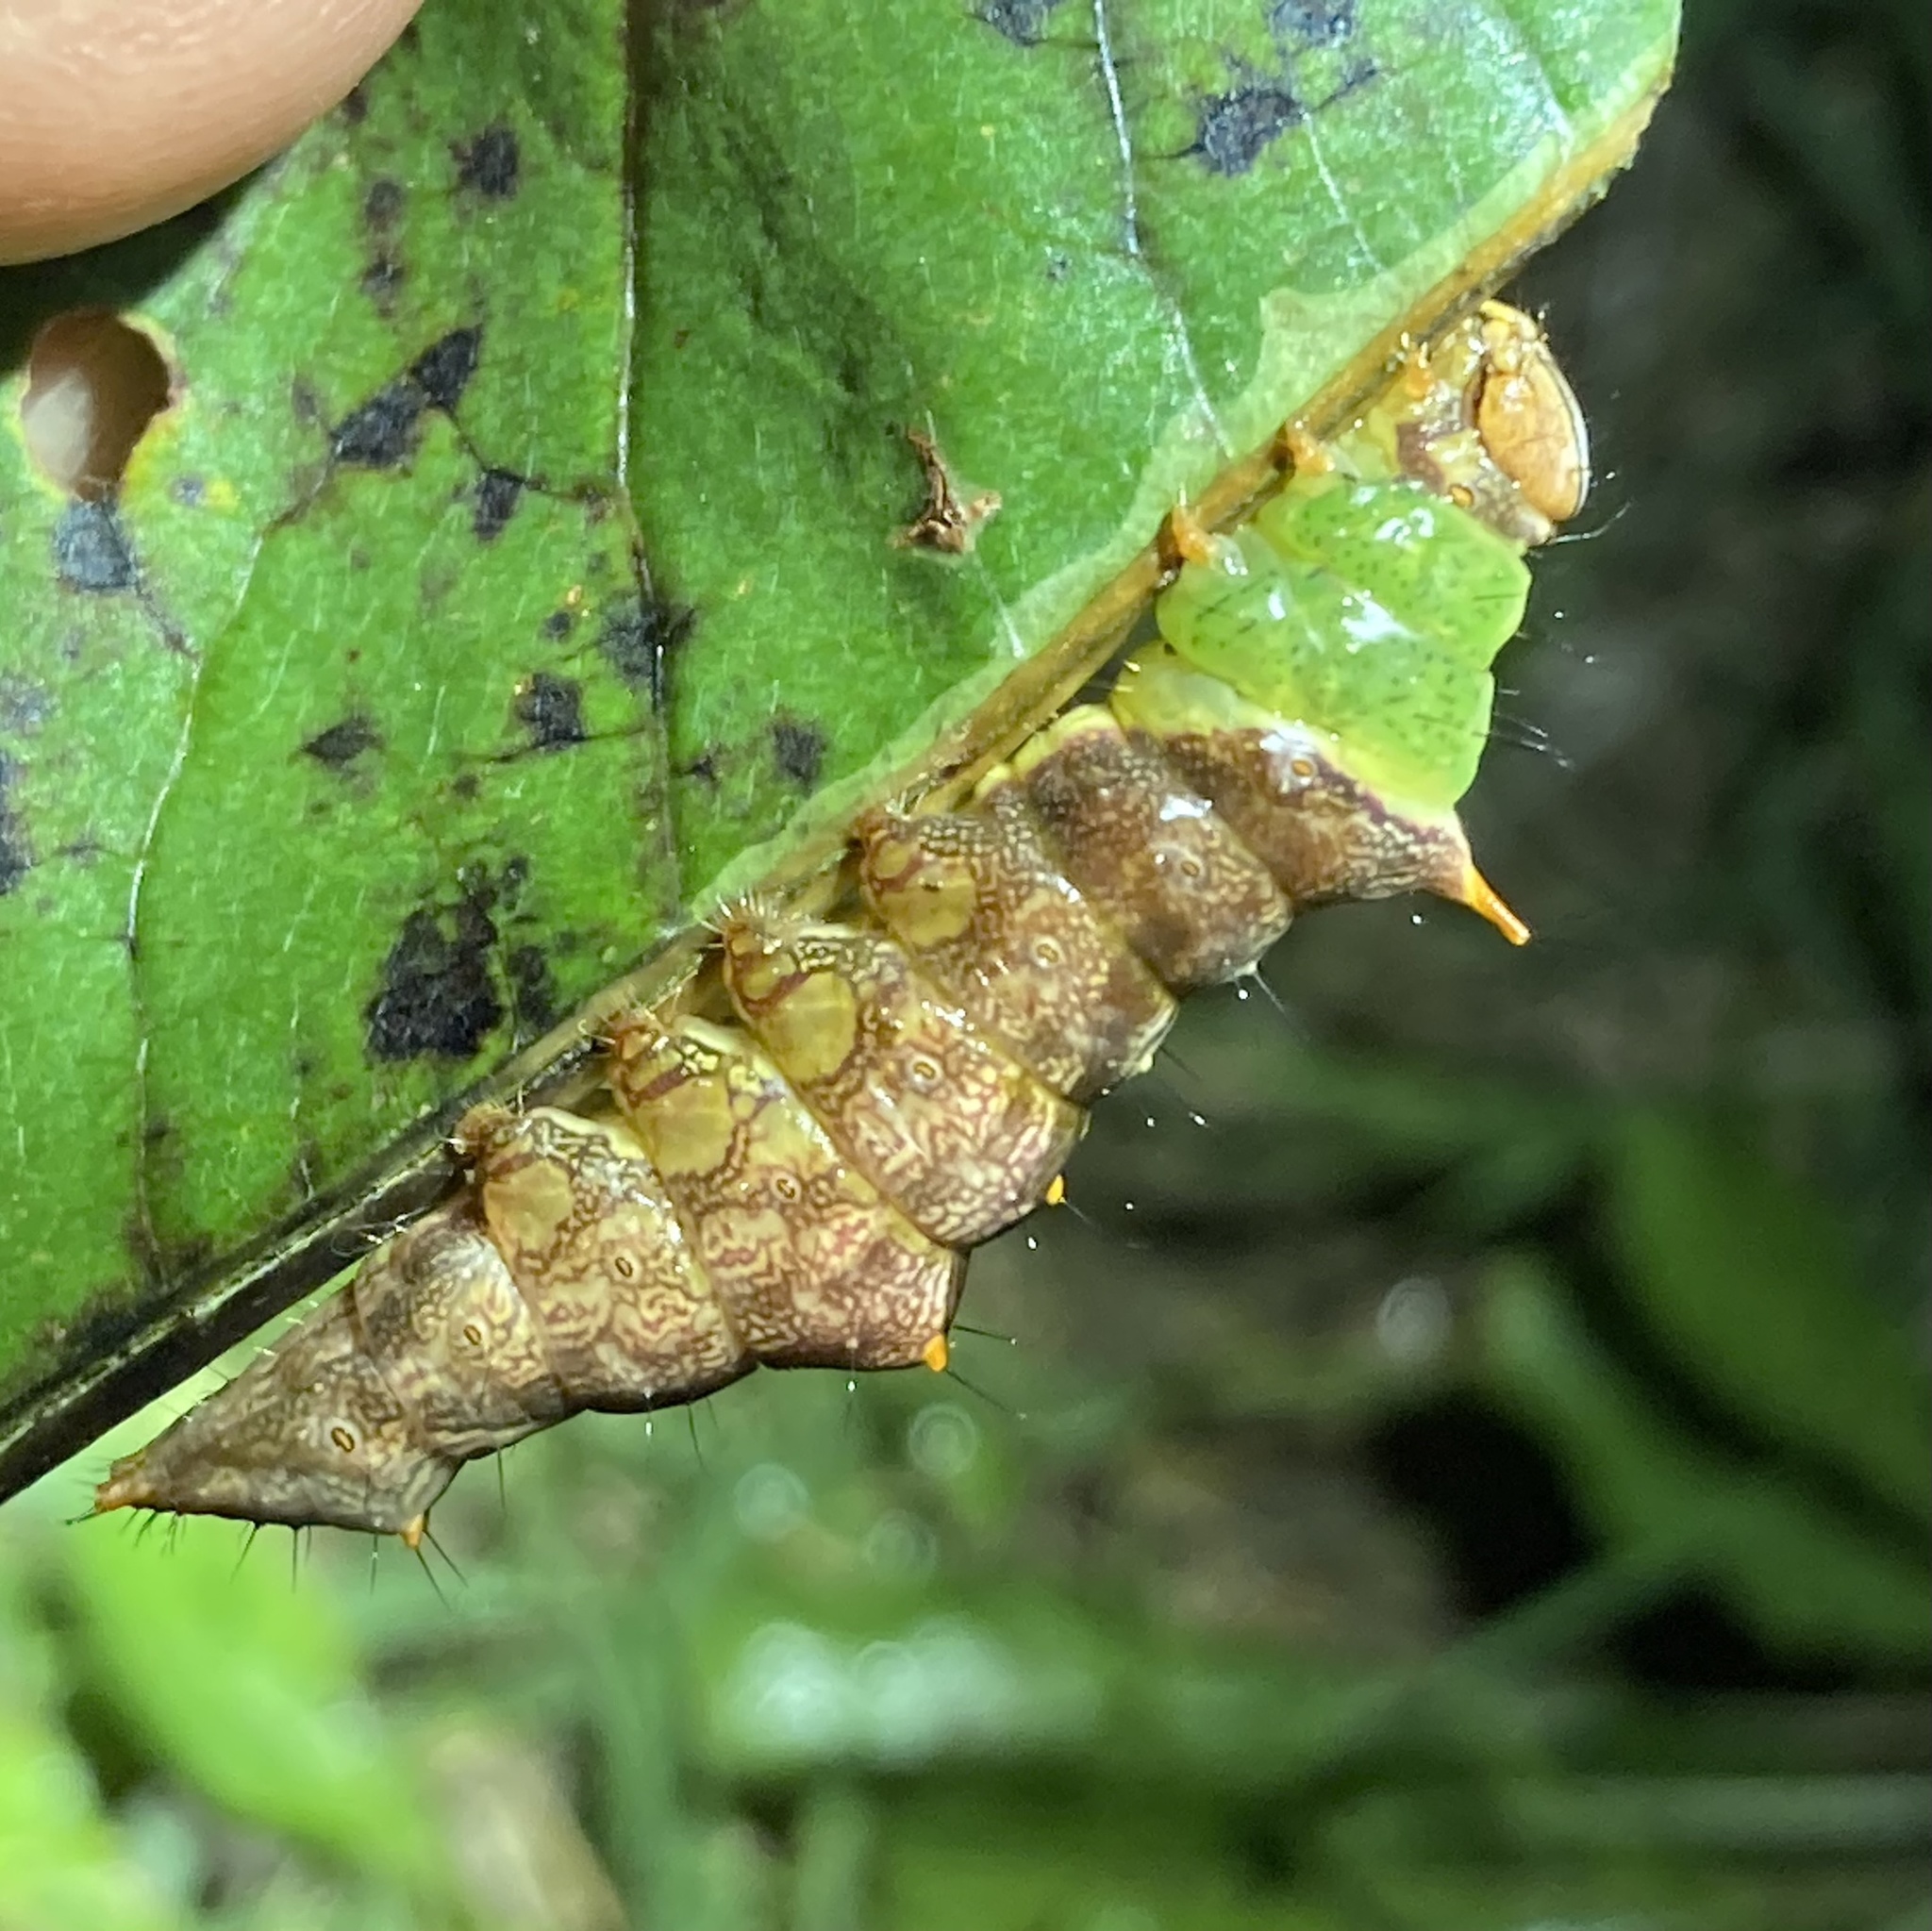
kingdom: Animalia
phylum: Arthropoda
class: Insecta
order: Lepidoptera
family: Notodontidae
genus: Schizura
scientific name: Schizura ipomaeae
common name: Morning-glory prominent
